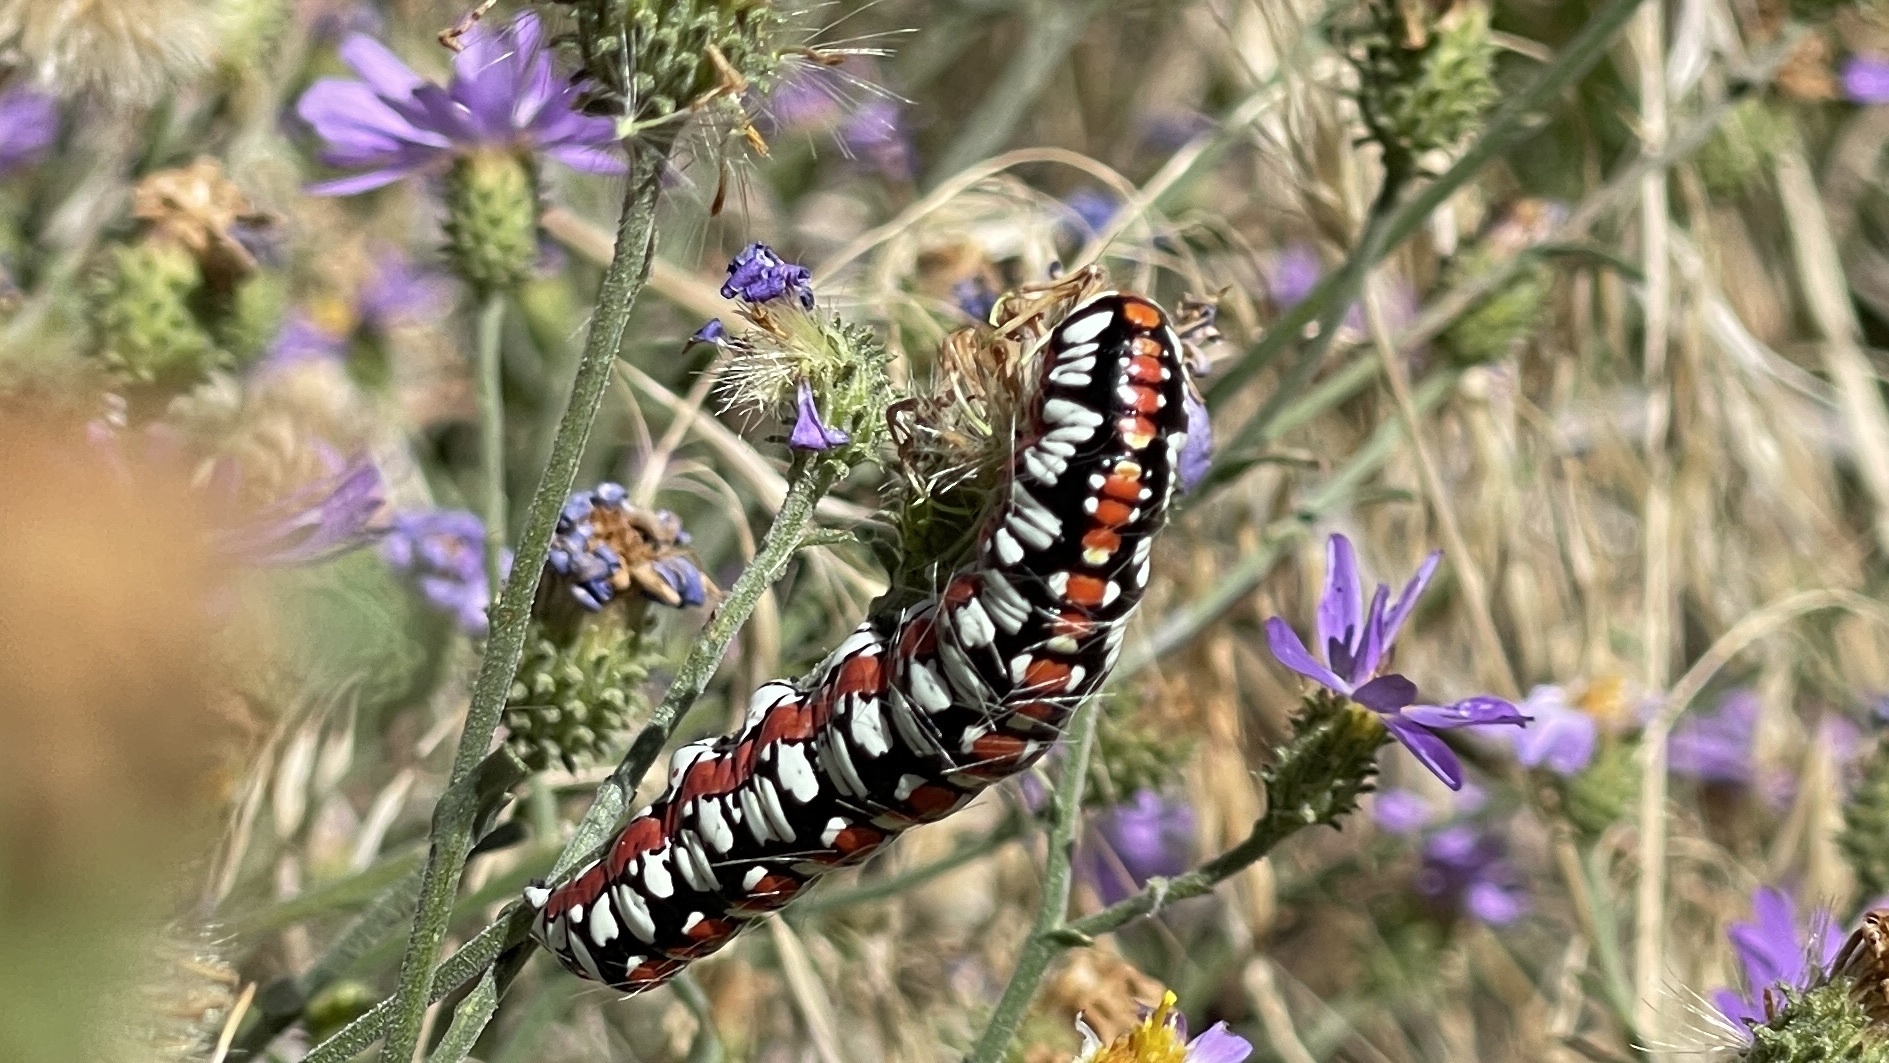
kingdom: Animalia
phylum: Arthropoda
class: Insecta
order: Lepidoptera
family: Noctuidae
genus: Cucullia
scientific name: Cucullia dorsalis
